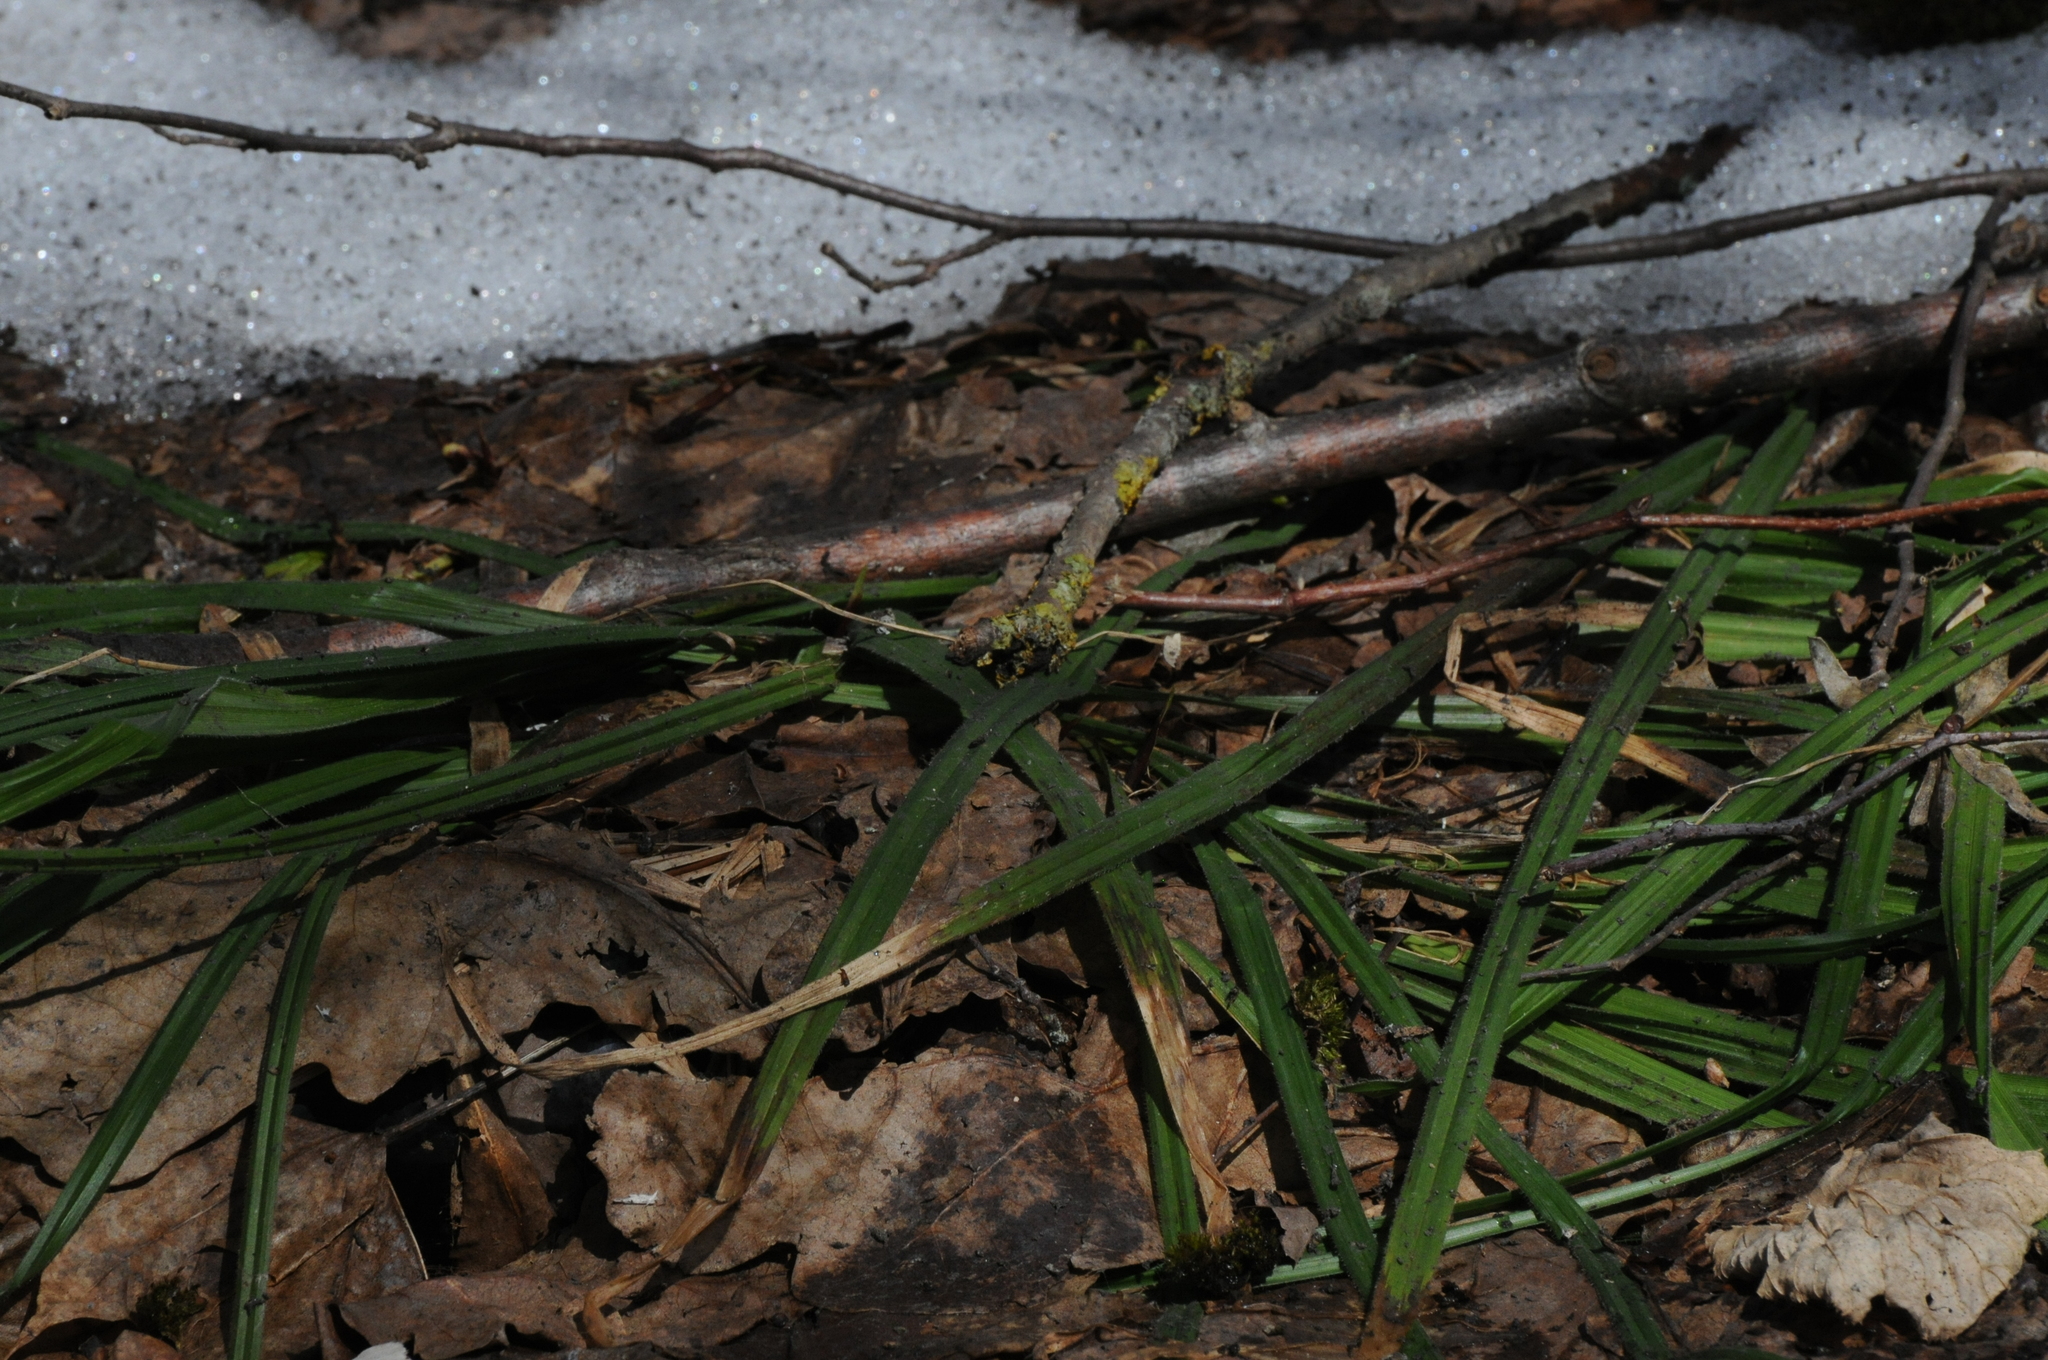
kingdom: Plantae
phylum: Tracheophyta
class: Liliopsida
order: Poales
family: Cyperaceae
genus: Carex
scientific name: Carex pilosa
